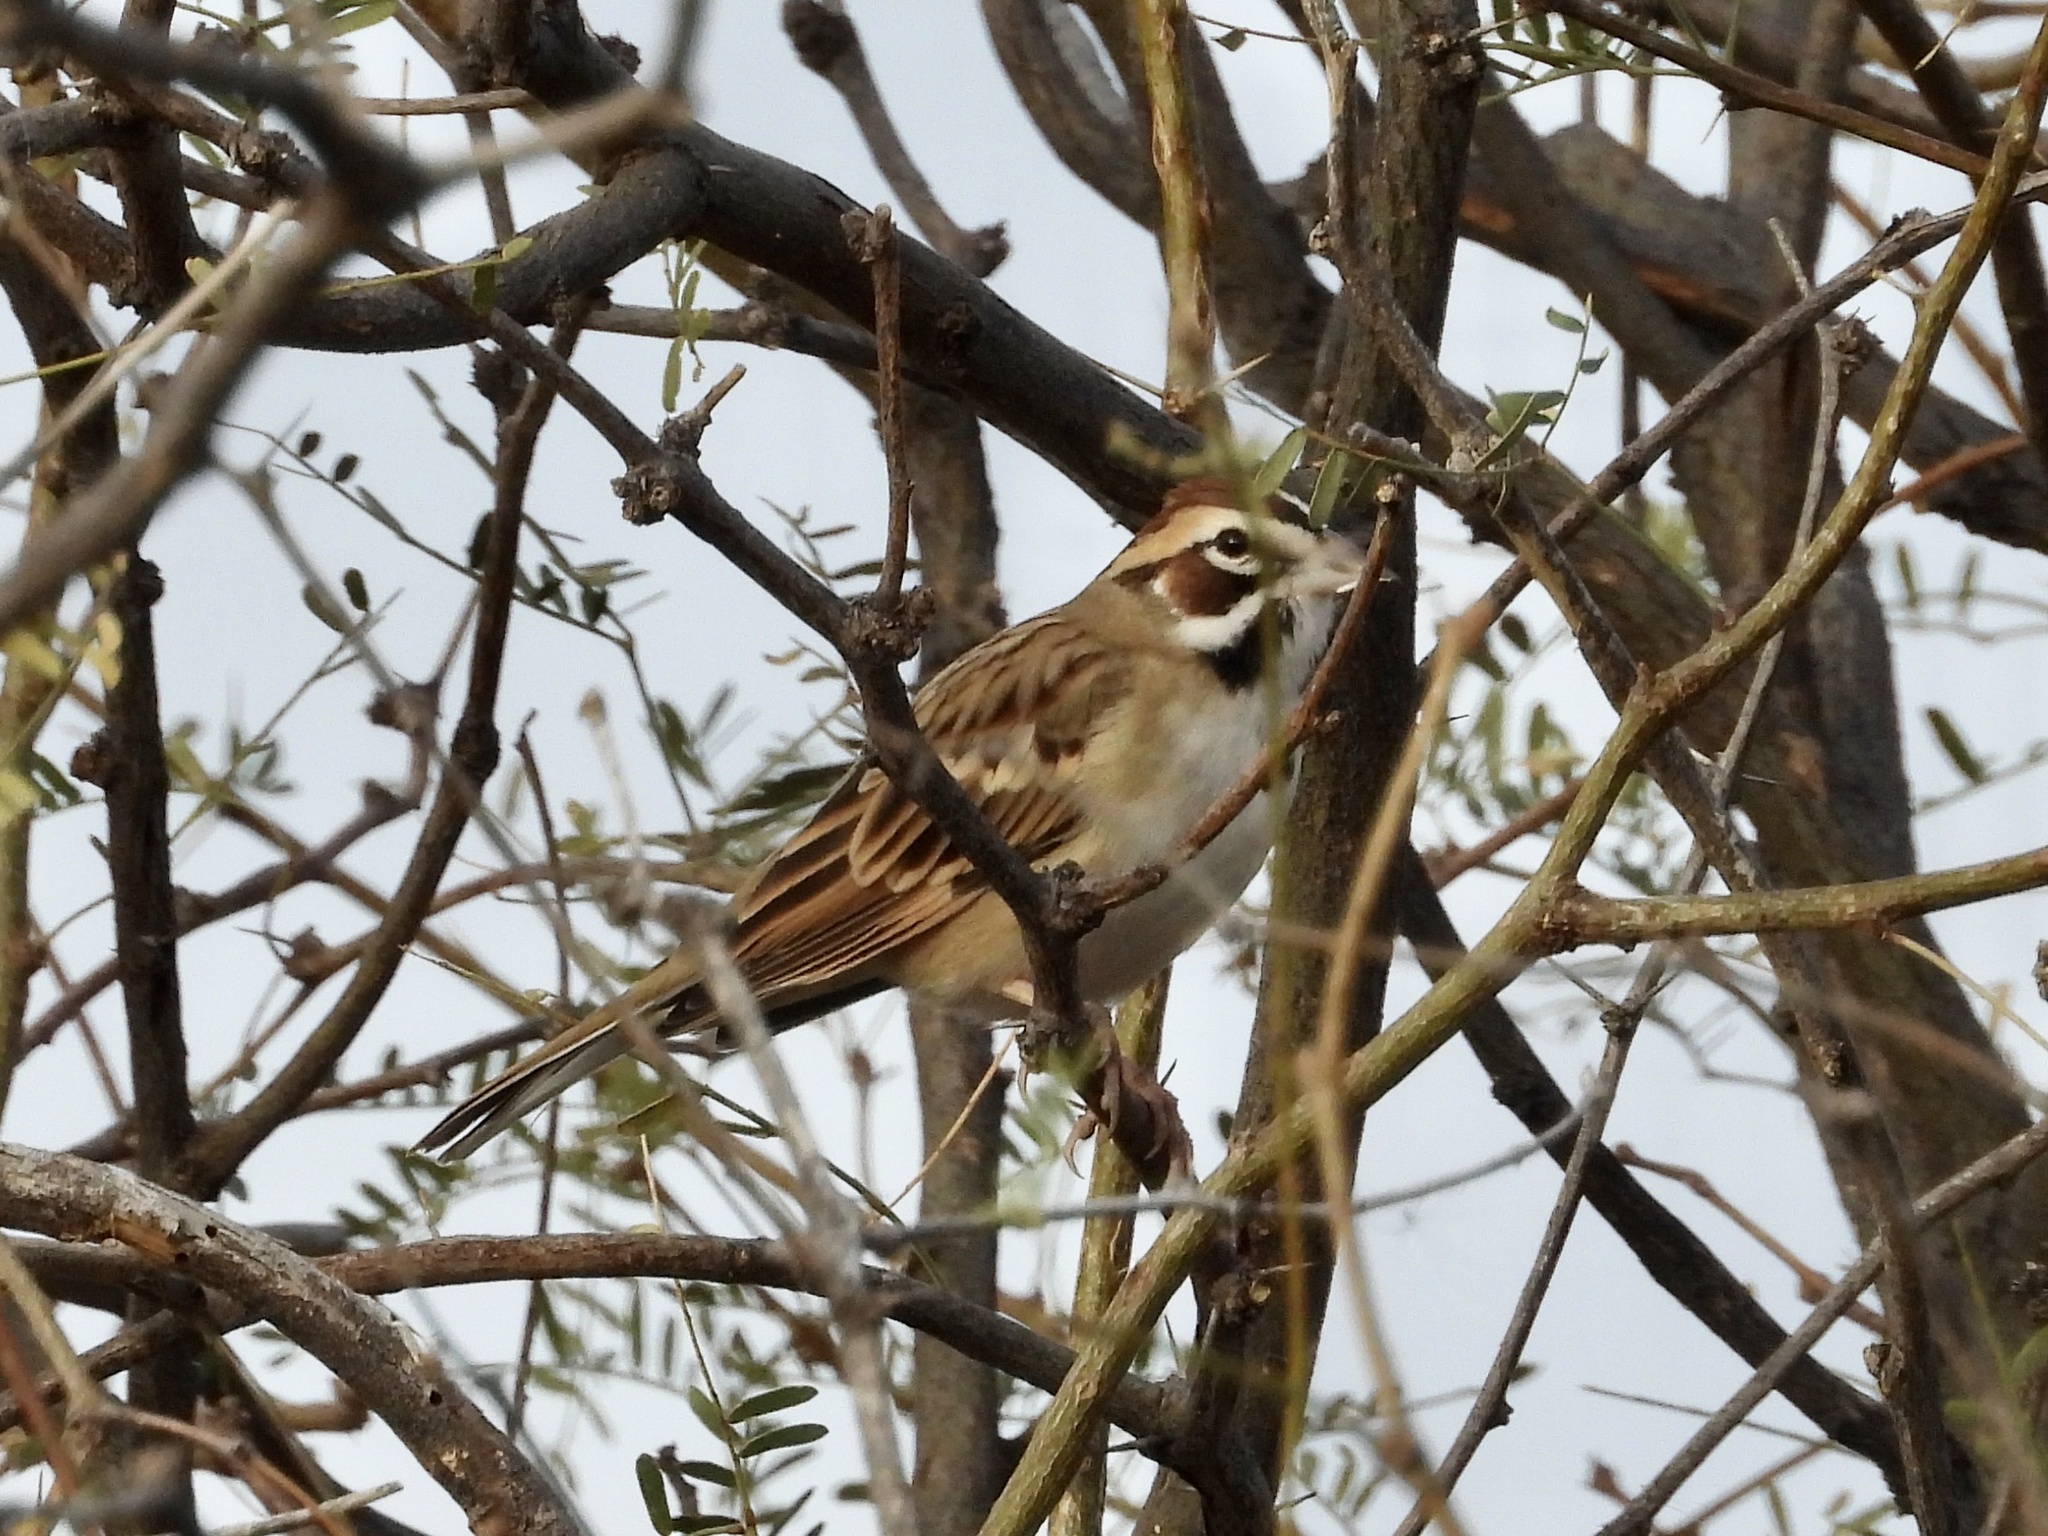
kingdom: Animalia
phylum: Chordata
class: Aves
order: Passeriformes
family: Passerellidae
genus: Chondestes
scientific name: Chondestes grammacus
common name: Lark sparrow
